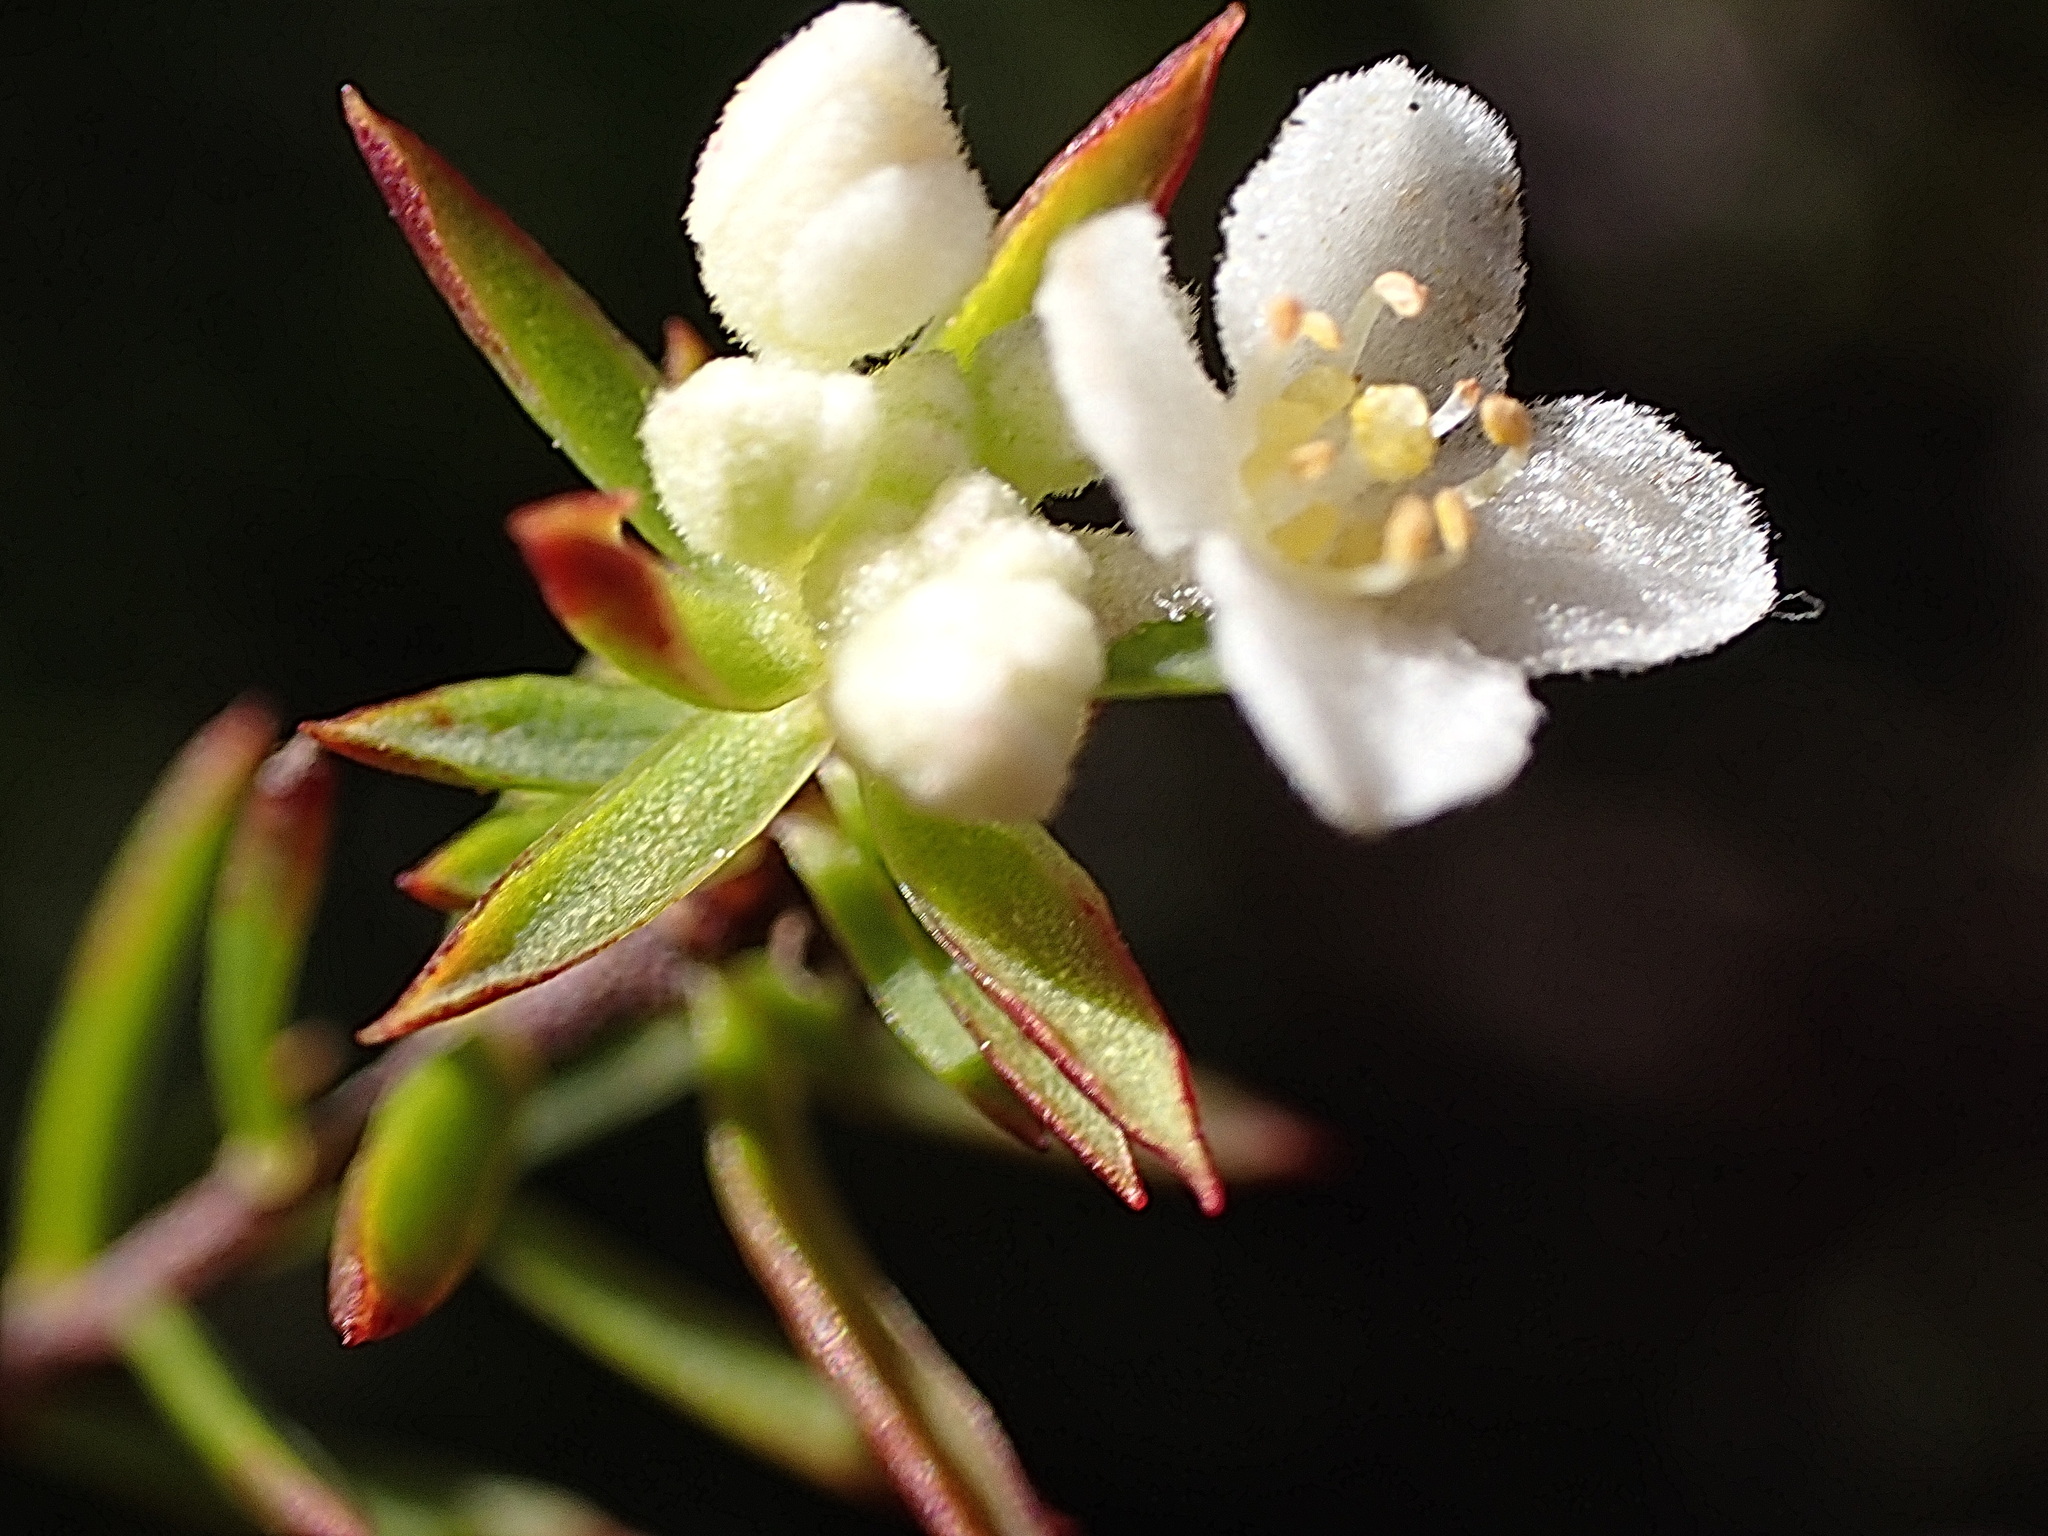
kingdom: Plantae
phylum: Tracheophyta
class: Magnoliopsida
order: Malvales
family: Thymelaeaceae
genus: Lachnaea
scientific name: Lachnaea diosmoides
